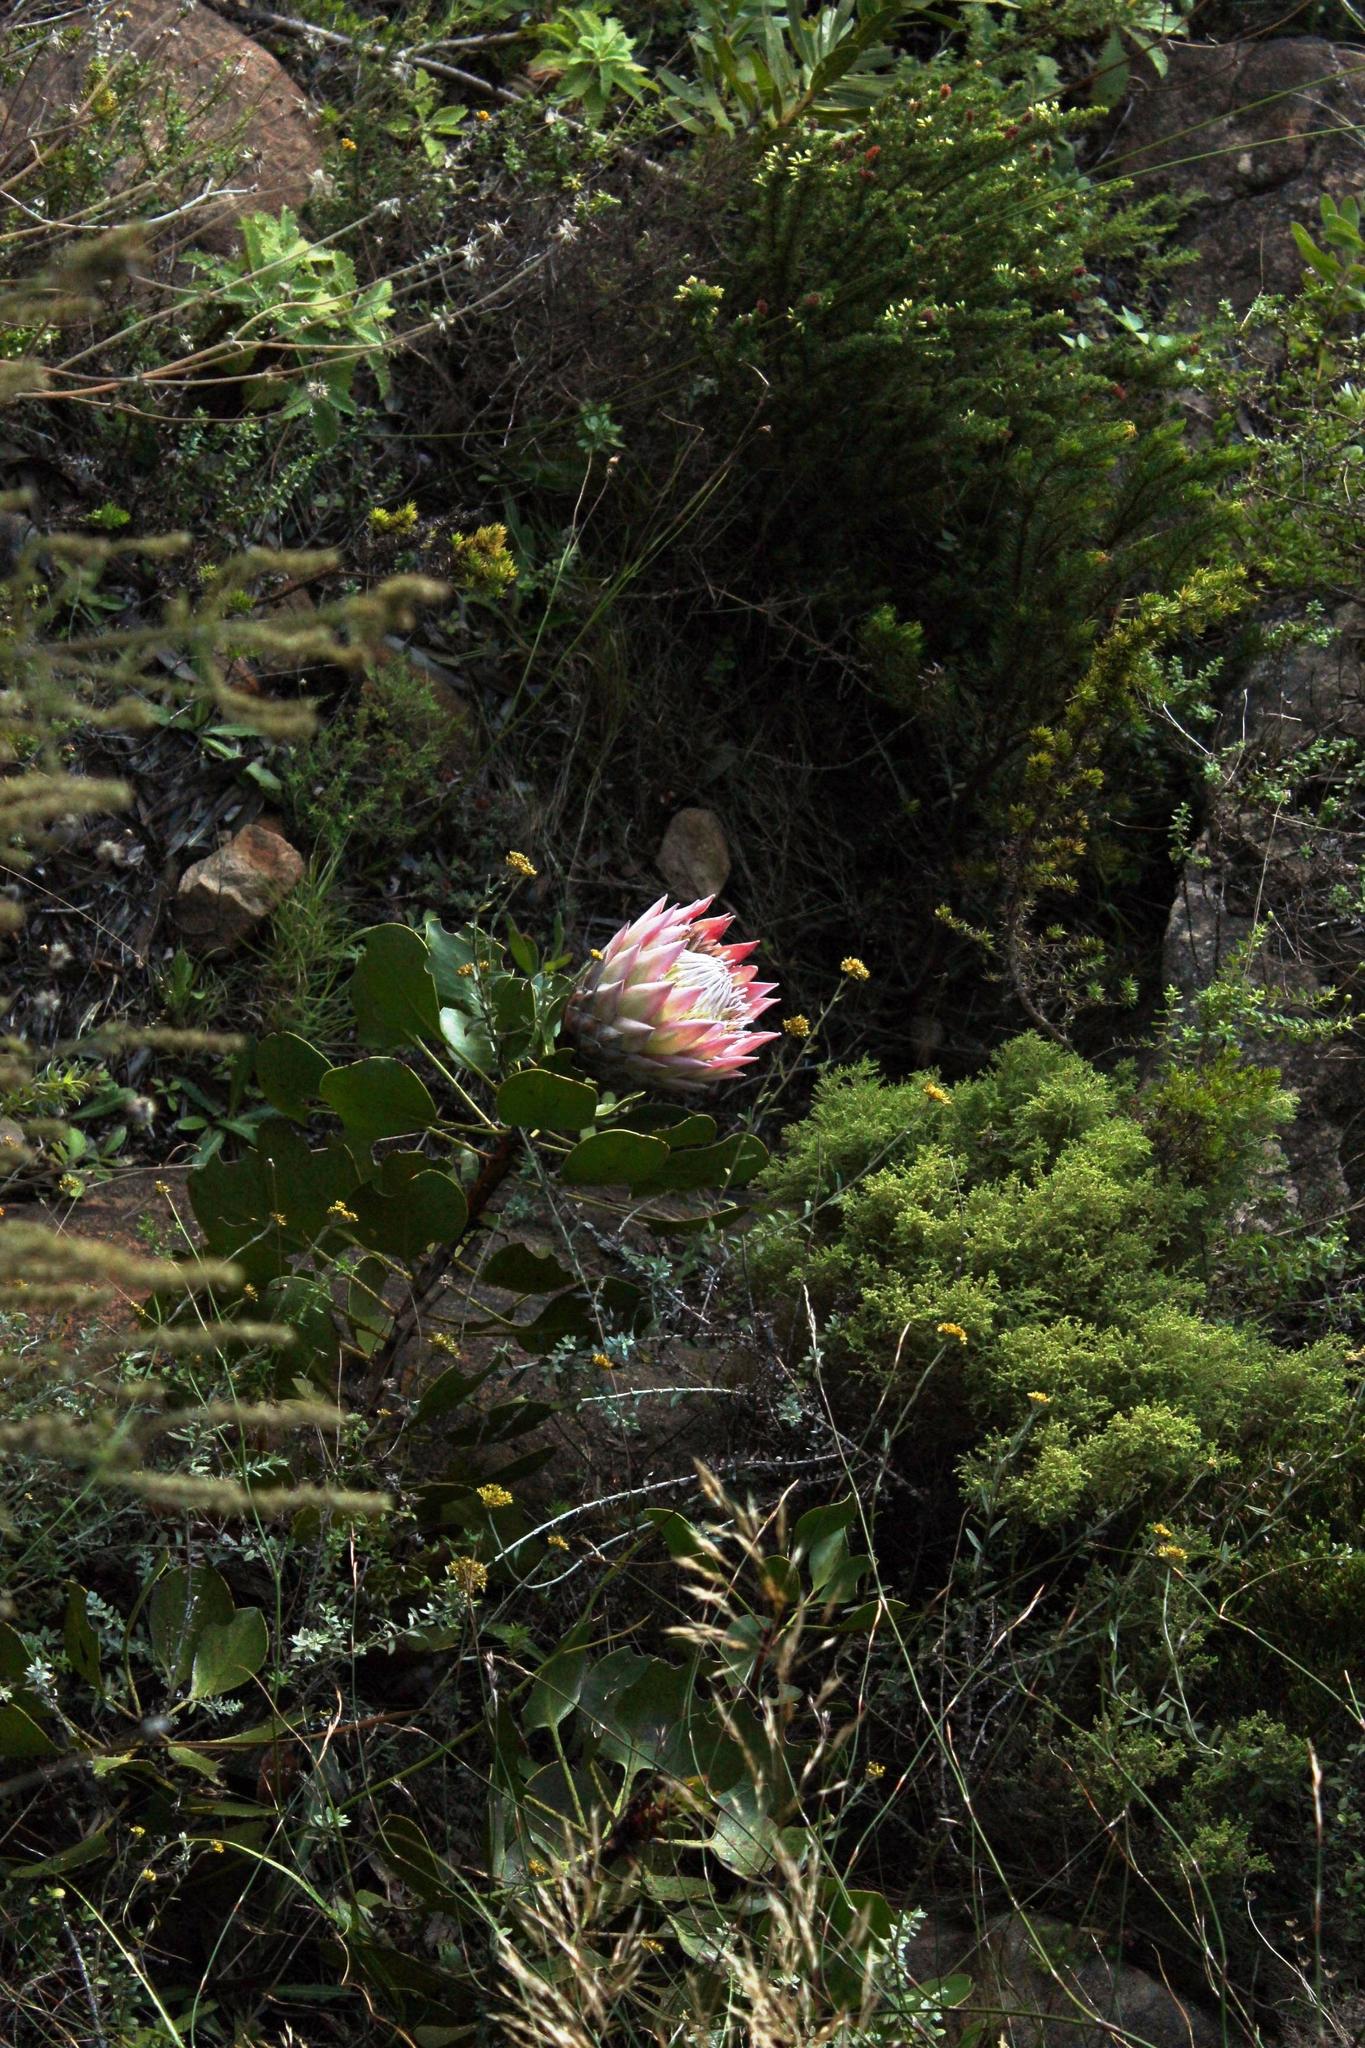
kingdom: Plantae
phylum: Tracheophyta
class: Magnoliopsida
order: Proteales
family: Proteaceae
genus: Protea
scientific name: Protea cynaroides
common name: King protea
